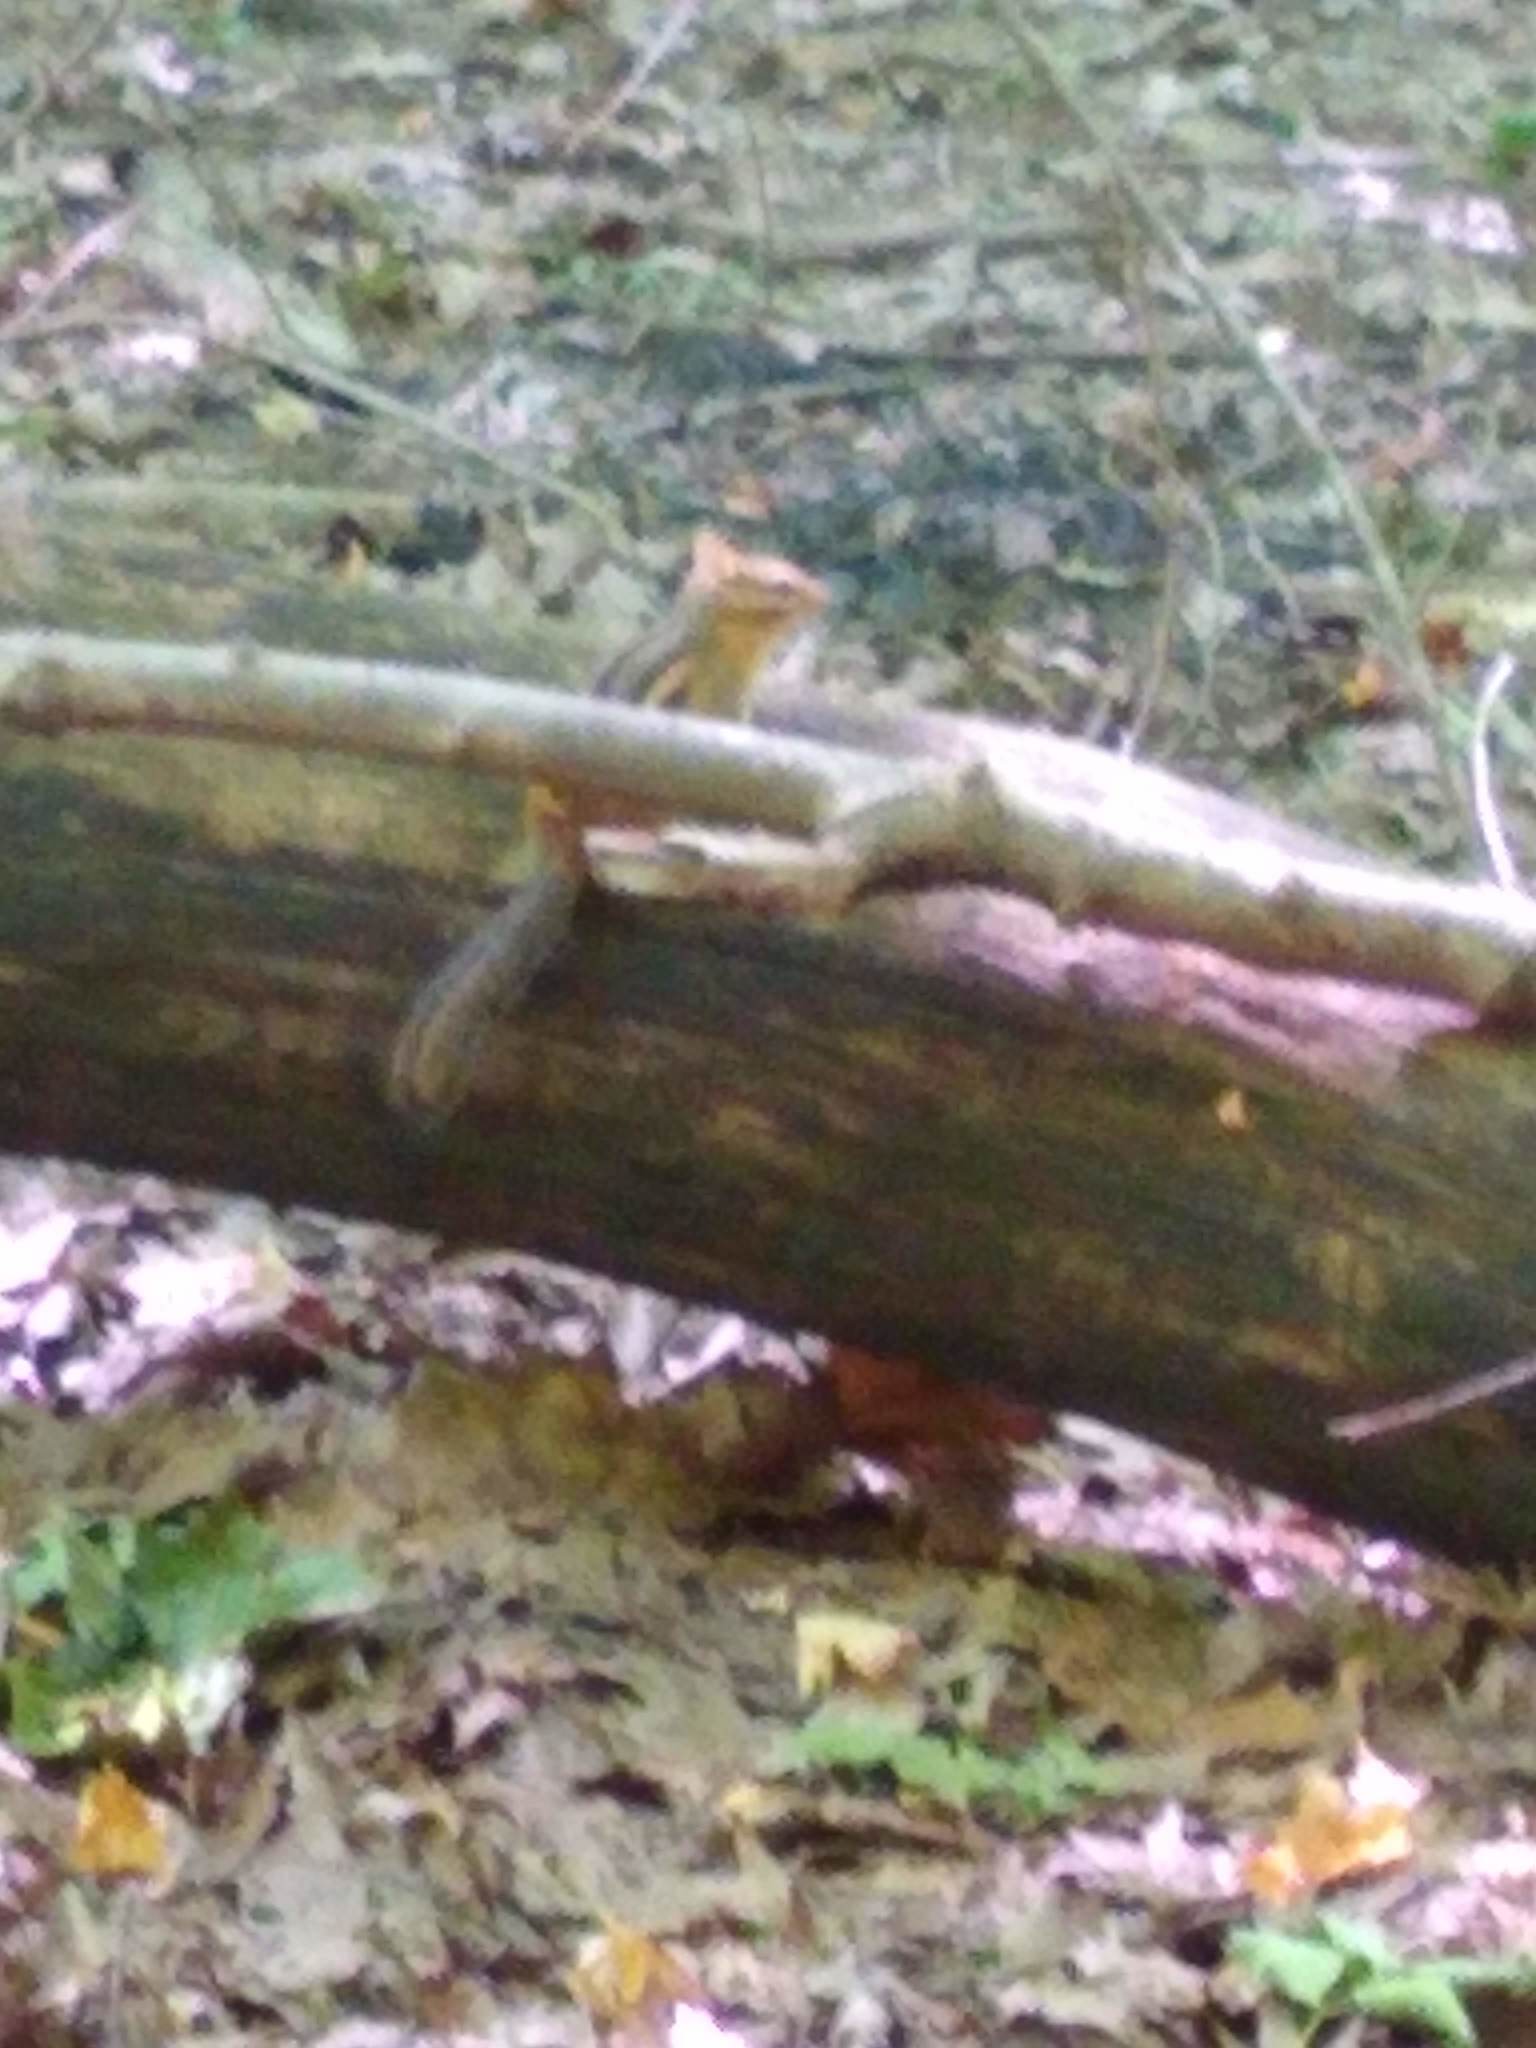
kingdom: Animalia
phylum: Chordata
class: Mammalia
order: Rodentia
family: Sciuridae
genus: Tamias
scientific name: Tamias striatus
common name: Eastern chipmunk
